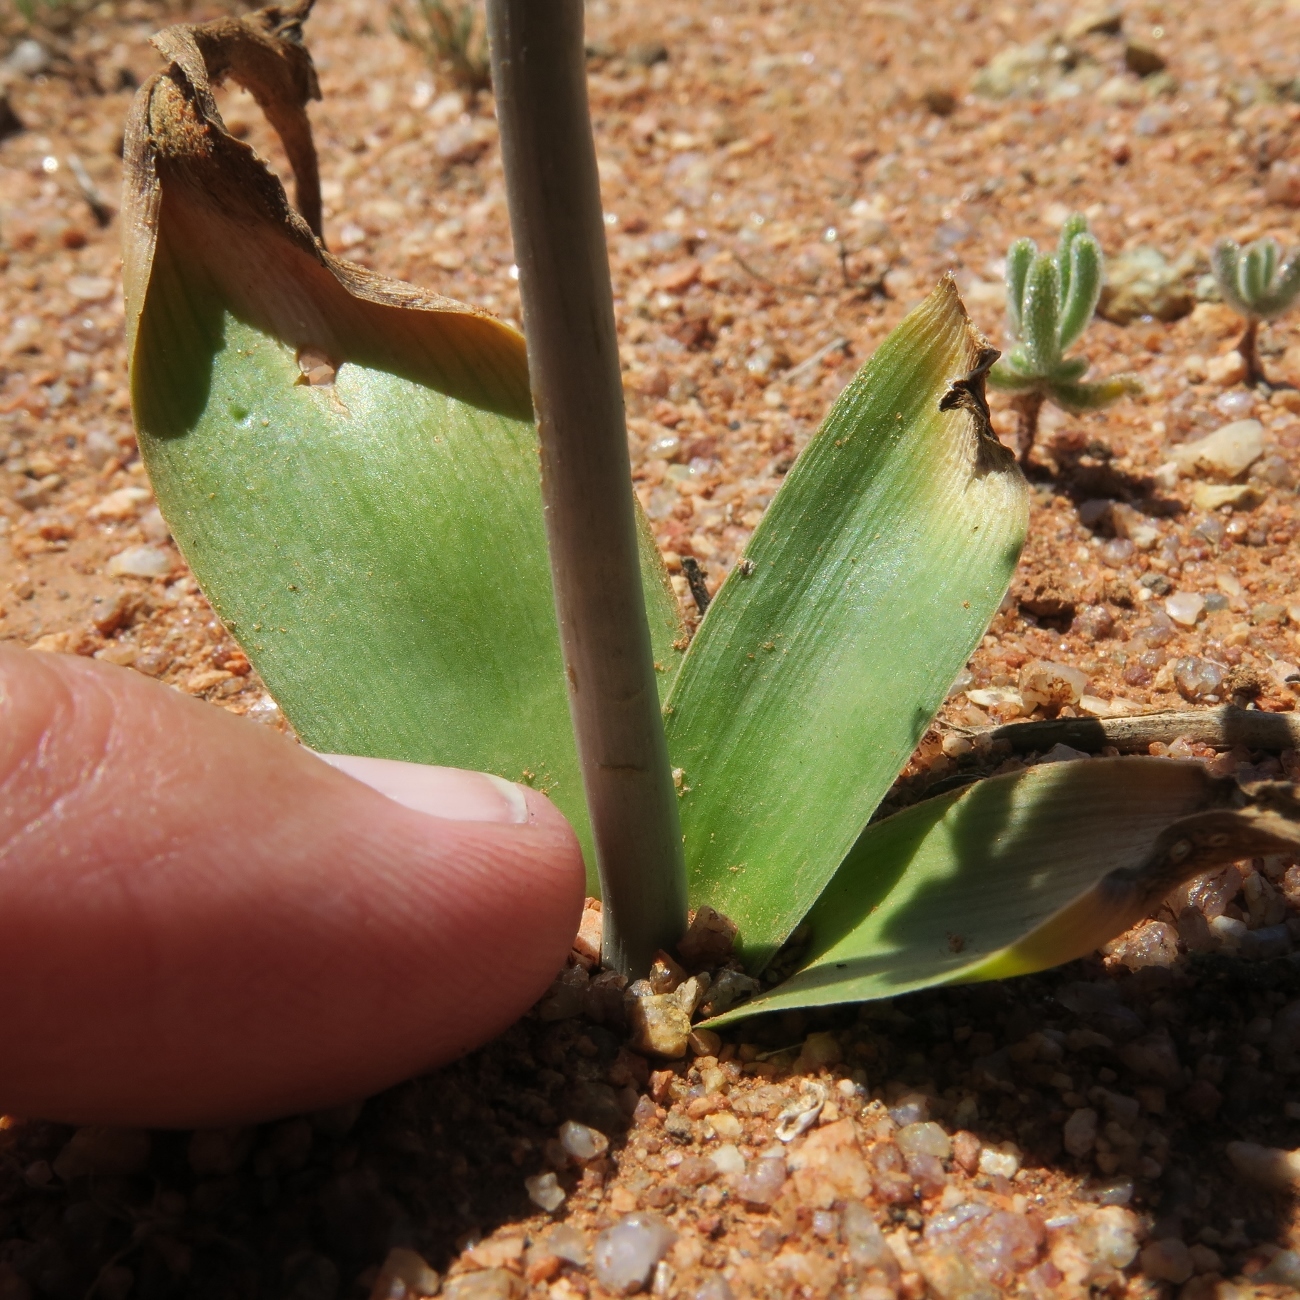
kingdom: Plantae
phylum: Tracheophyta
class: Liliopsida
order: Asparagales
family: Asparagaceae
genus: Albuca
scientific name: Albuca unifolia
